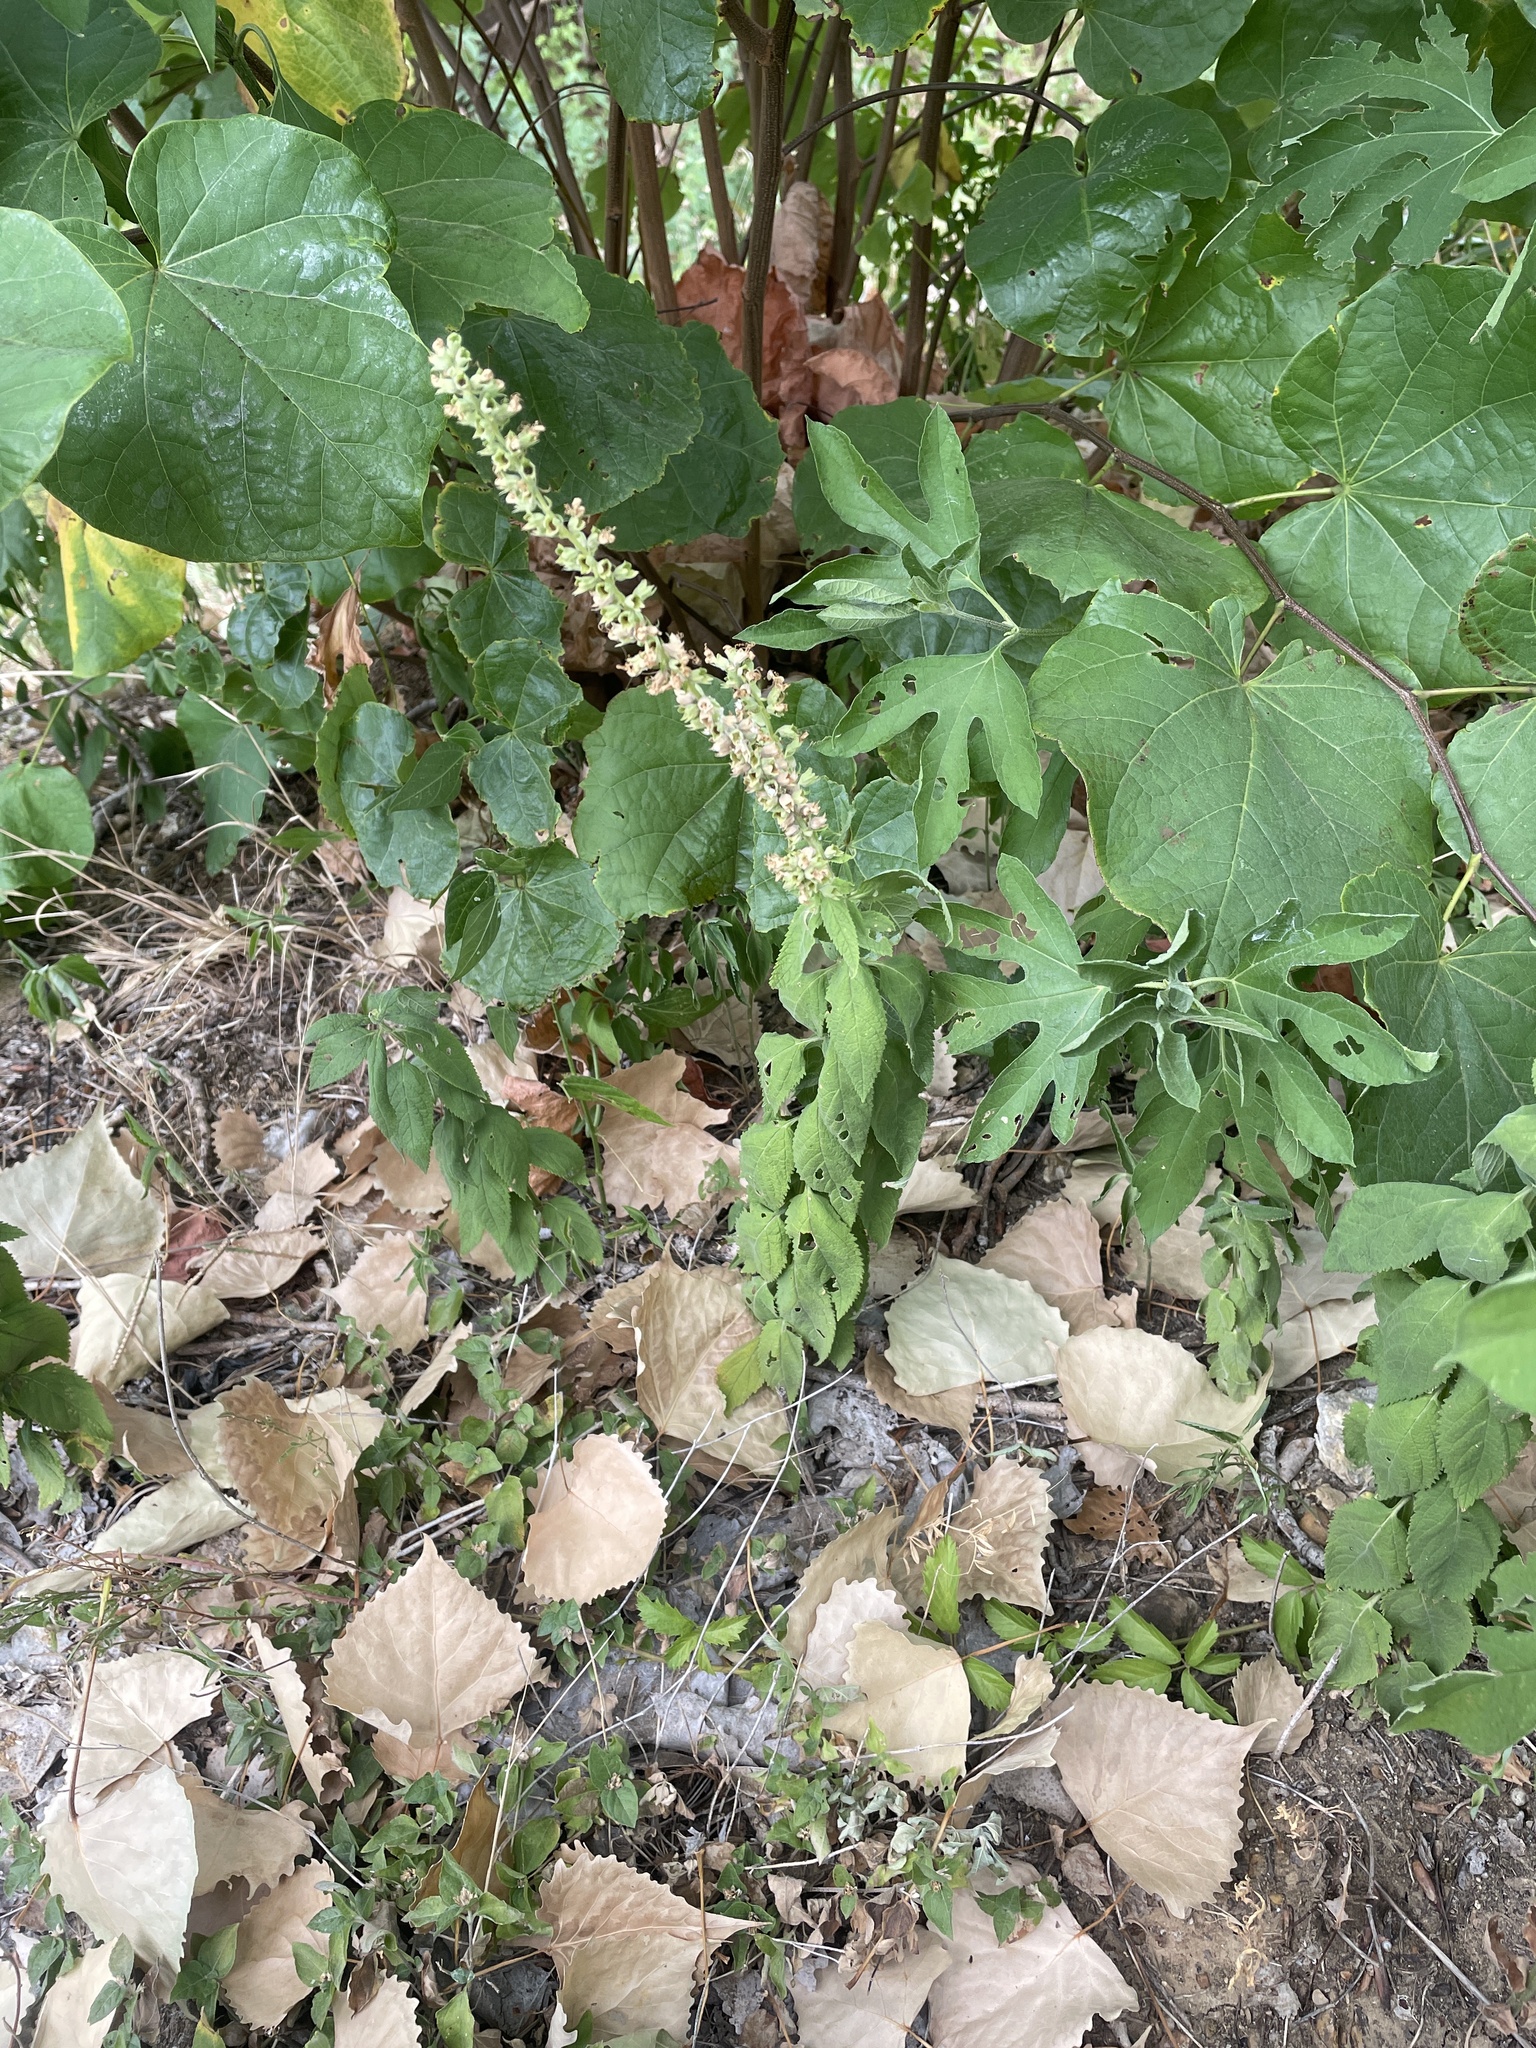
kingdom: Plantae
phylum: Tracheophyta
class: Magnoliopsida
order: Lamiales
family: Lamiaceae
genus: Teucrium
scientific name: Teucrium canadense
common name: American germander
